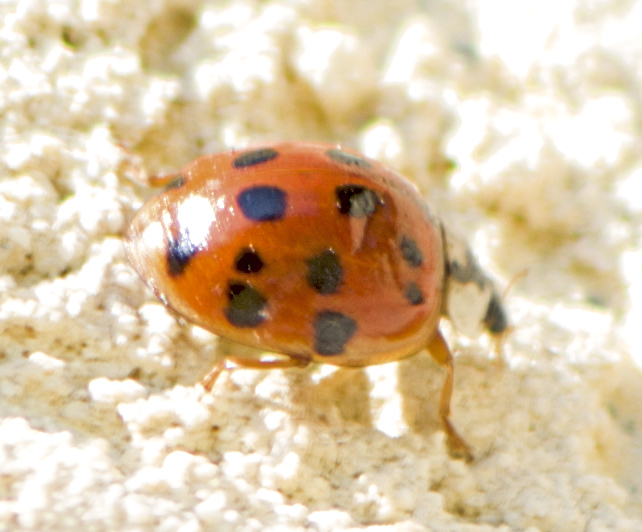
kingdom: Animalia
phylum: Arthropoda
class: Insecta
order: Coleoptera
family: Coccinellidae
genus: Harmonia
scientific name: Harmonia axyridis
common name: Harlequin ladybird
